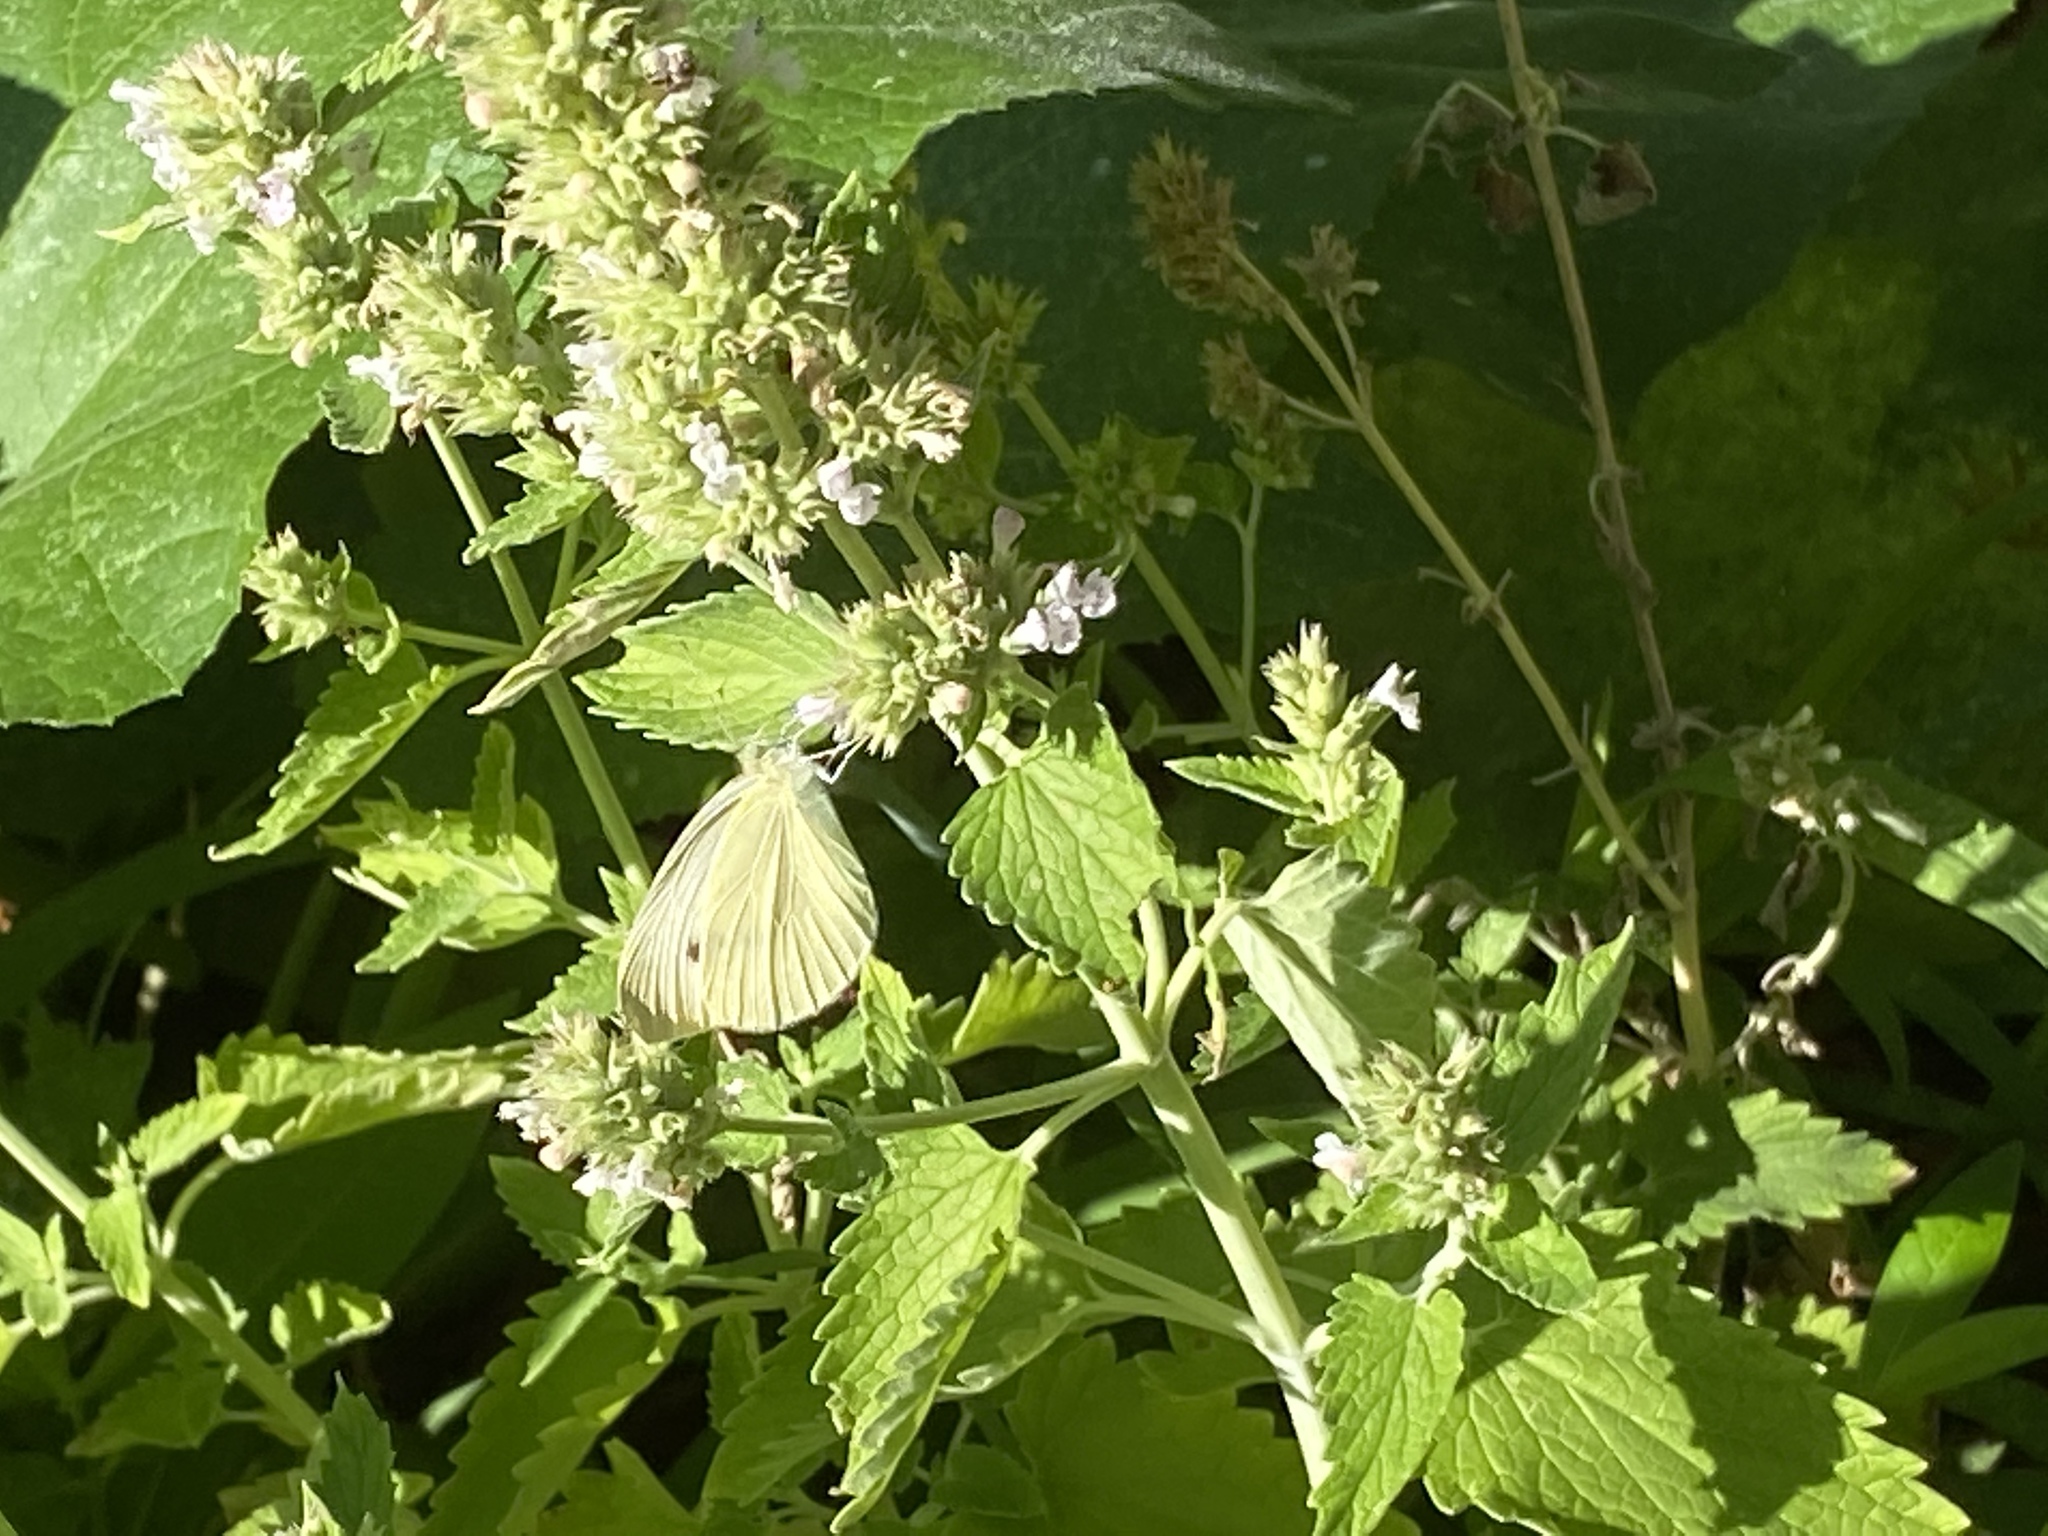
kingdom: Animalia
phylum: Arthropoda
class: Insecta
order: Lepidoptera
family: Pieridae
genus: Pieris
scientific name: Pieris rapae
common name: Small white
